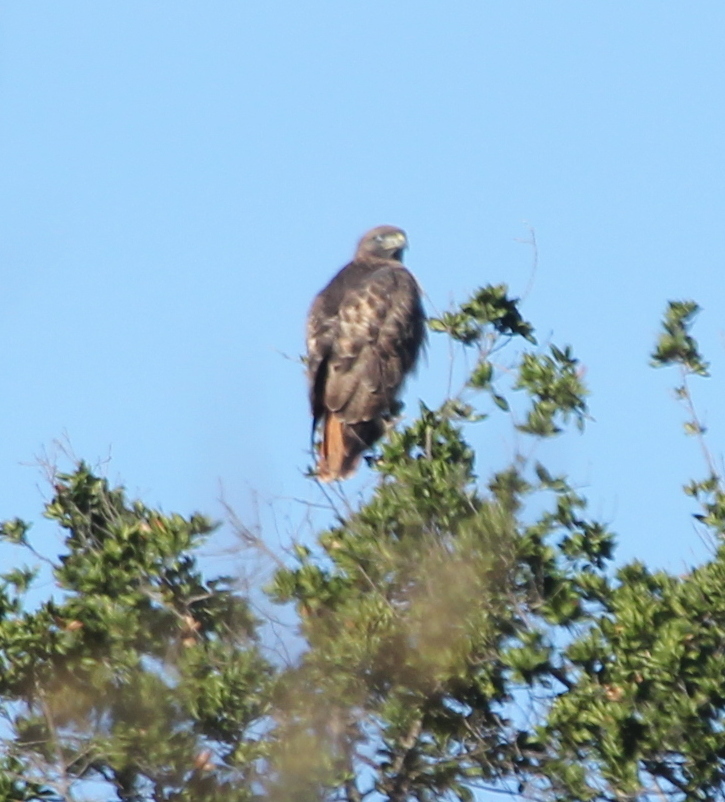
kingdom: Animalia
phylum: Chordata
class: Aves
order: Accipitriformes
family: Accipitridae
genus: Buteo
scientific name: Buteo jamaicensis
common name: Red-tailed hawk
